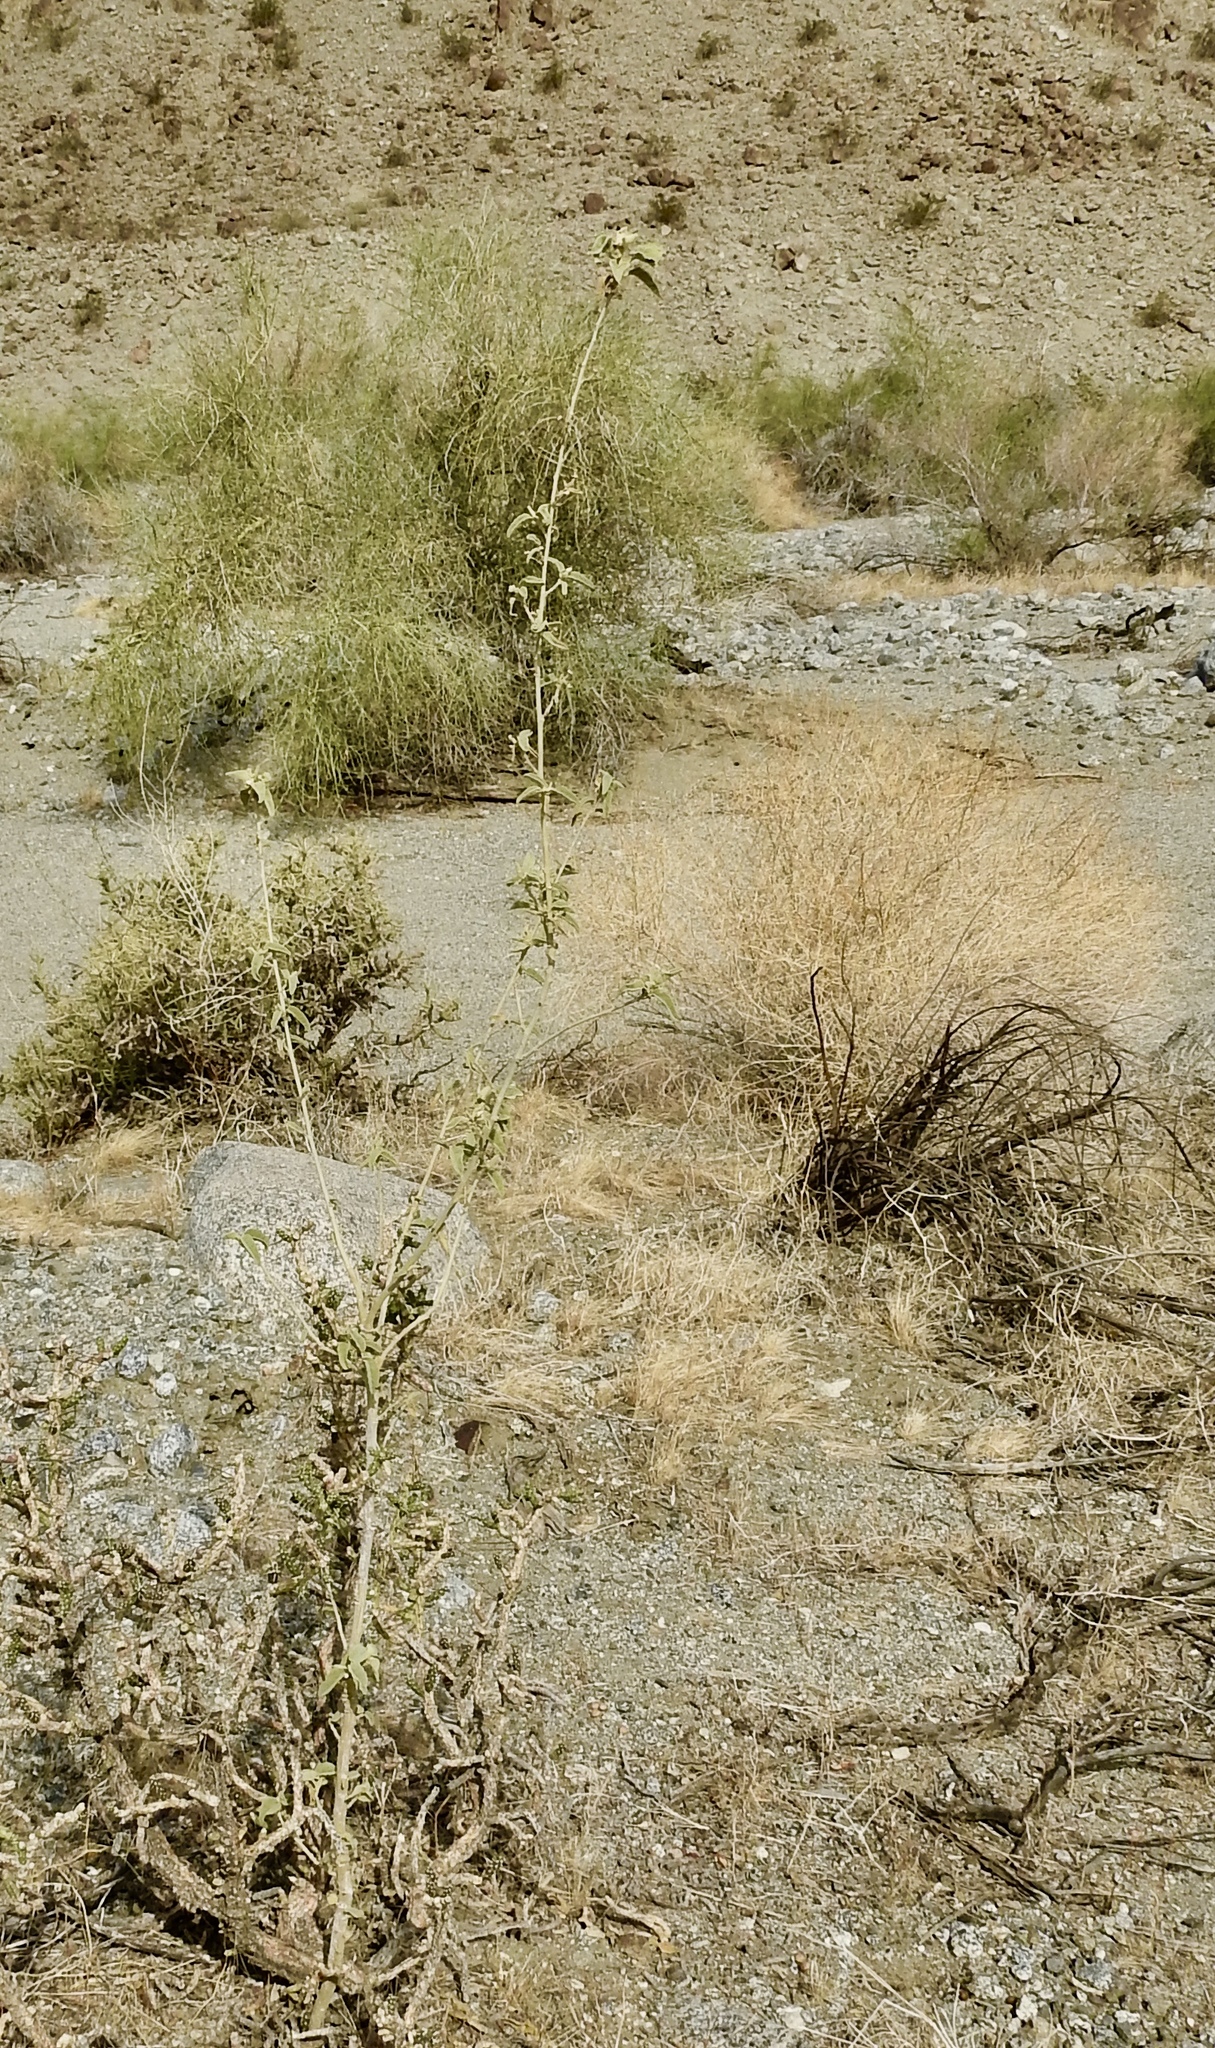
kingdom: Plantae
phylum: Tracheophyta
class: Magnoliopsida
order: Malvales
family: Malvaceae
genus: Horsfordia
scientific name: Horsfordia newberryi
